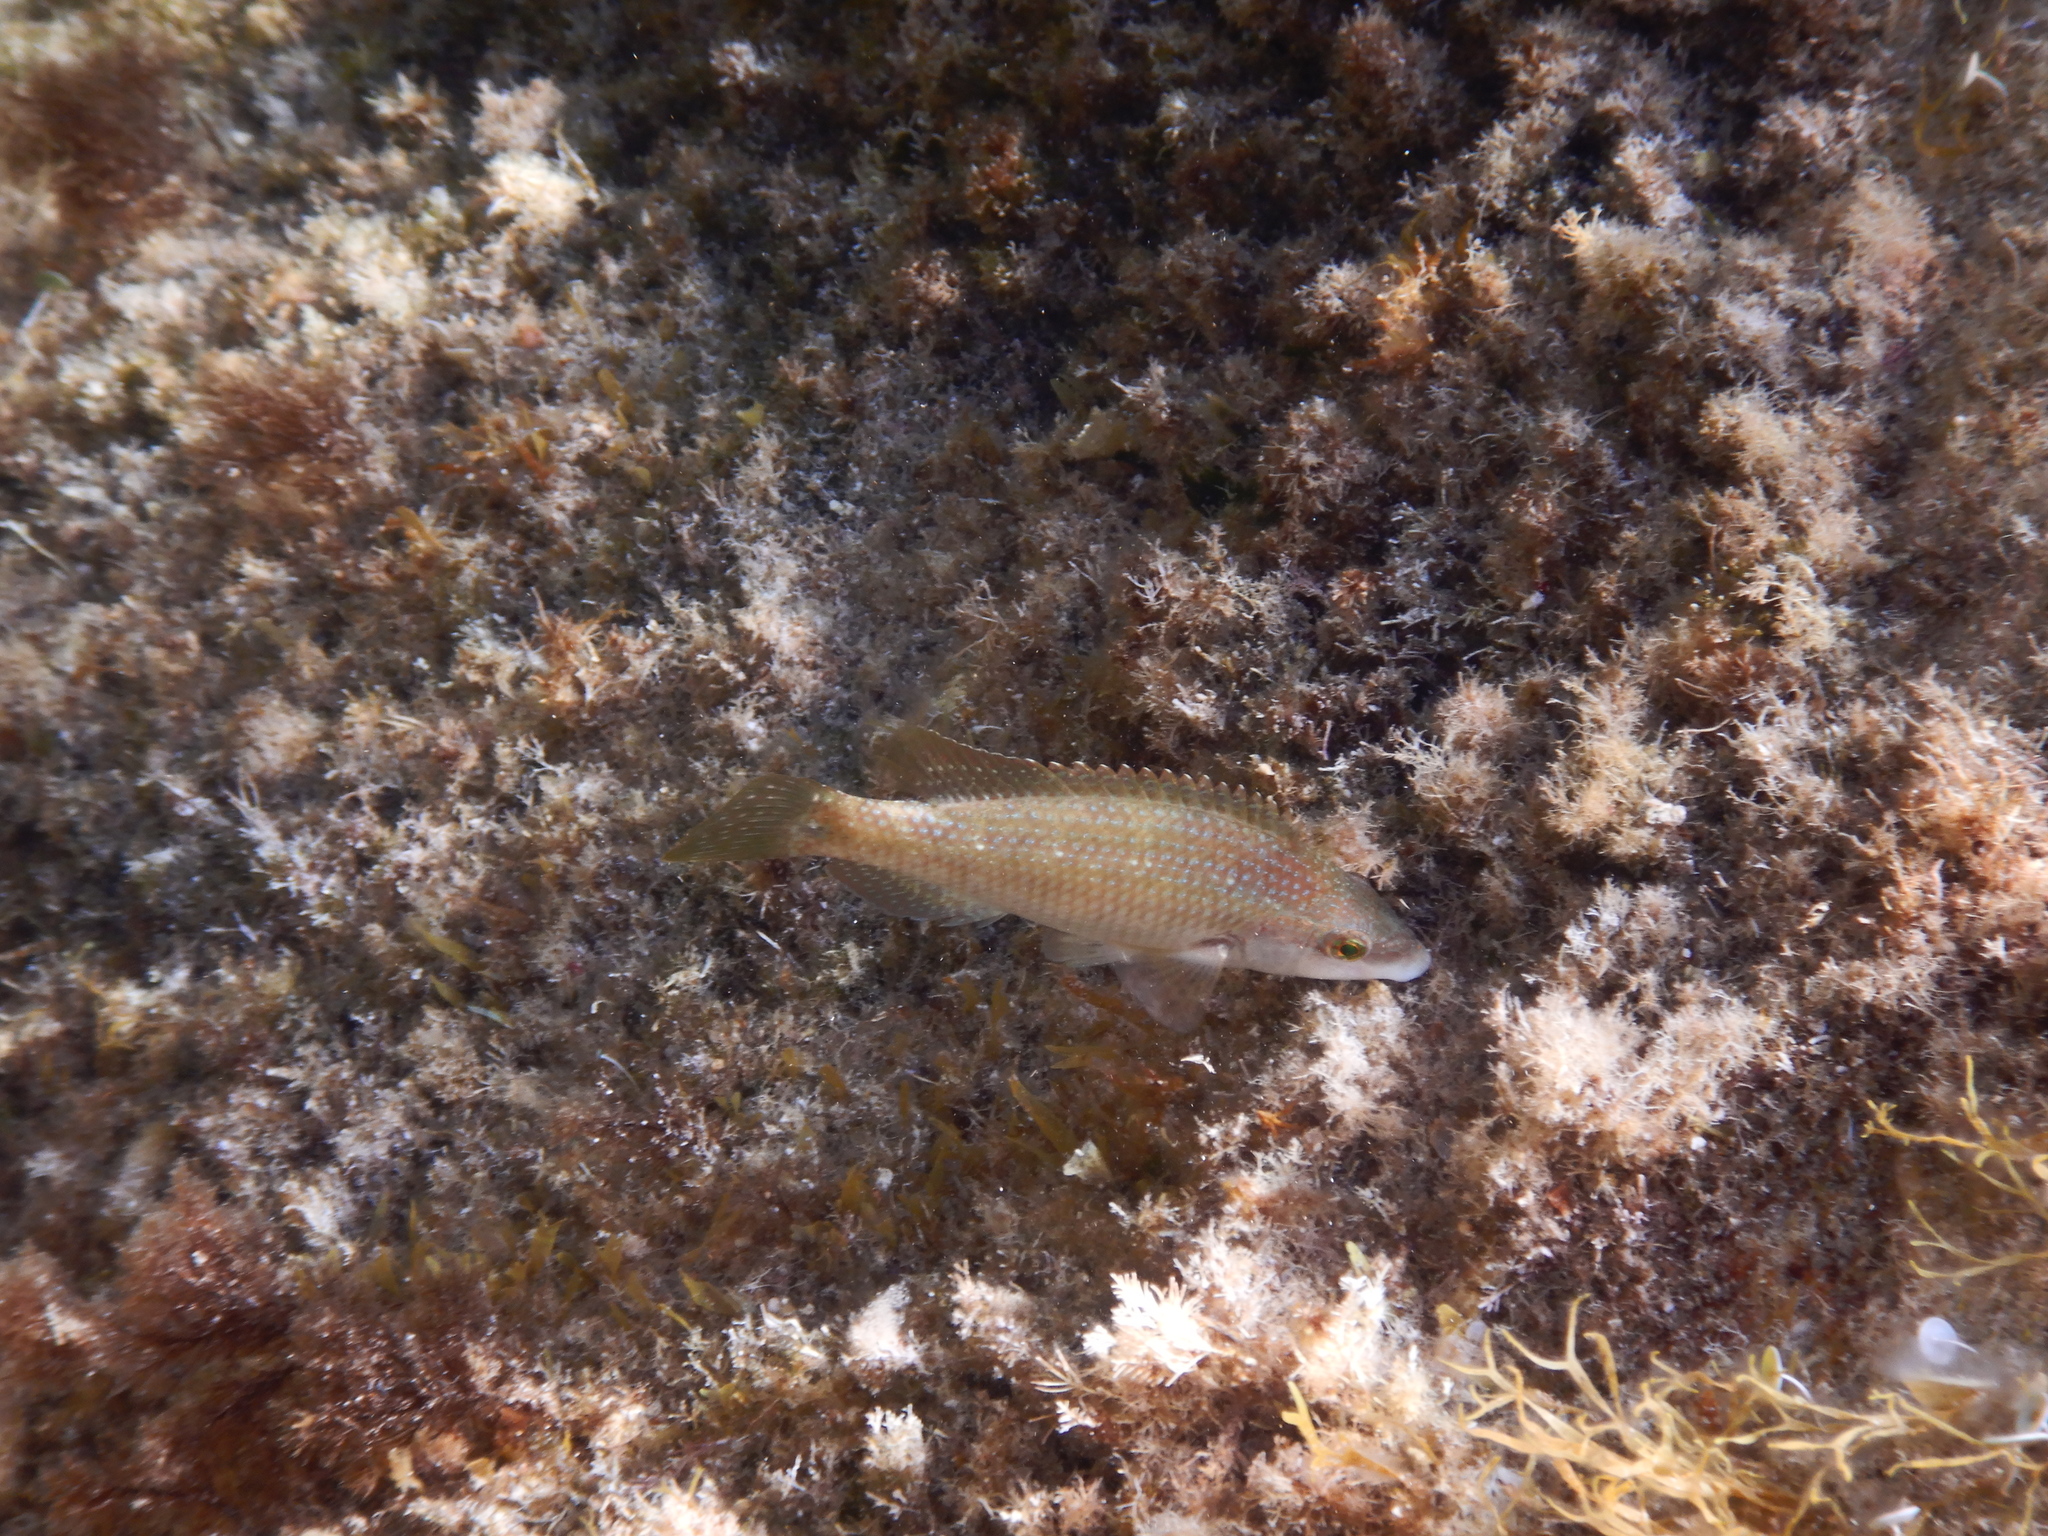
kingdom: Animalia
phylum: Chordata
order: Perciformes
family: Labridae
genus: Symphodus
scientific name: Symphodus tinca
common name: Peacock wrasse
